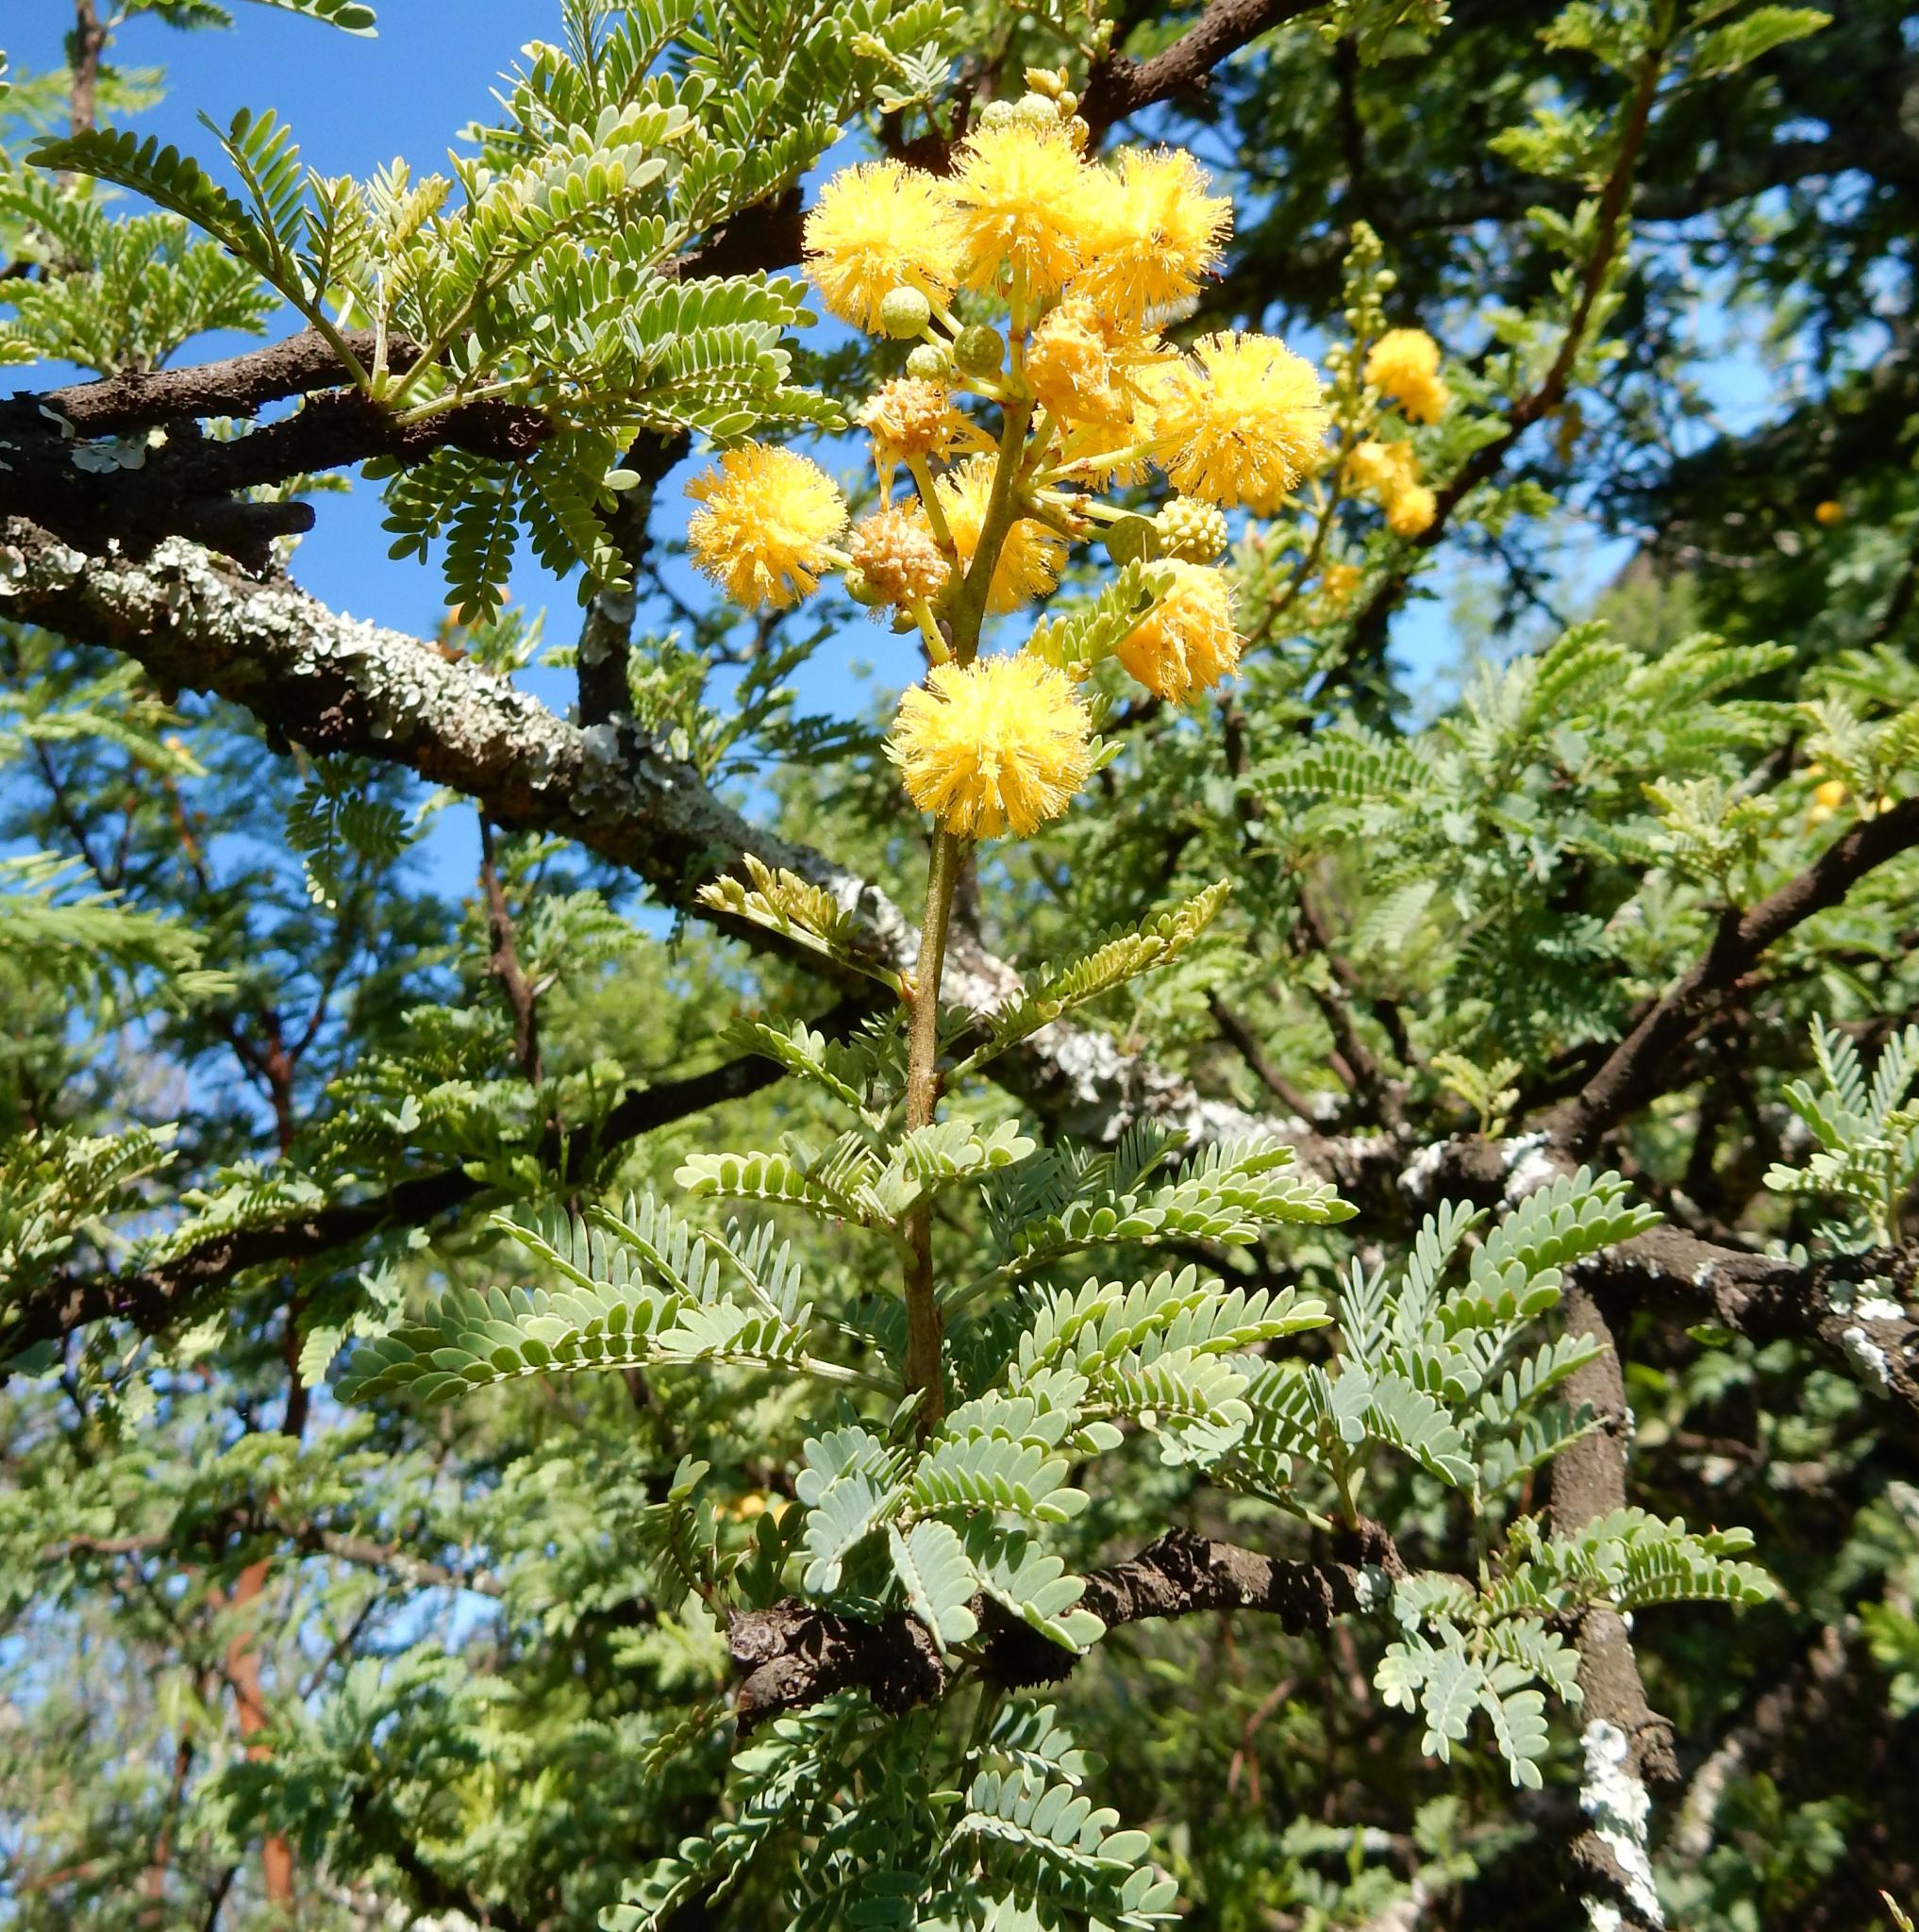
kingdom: Plantae
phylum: Tracheophyta
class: Magnoliopsida
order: Fabales
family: Fabaceae
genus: Vachellia
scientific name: Vachellia karroo
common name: Sweet thorn
